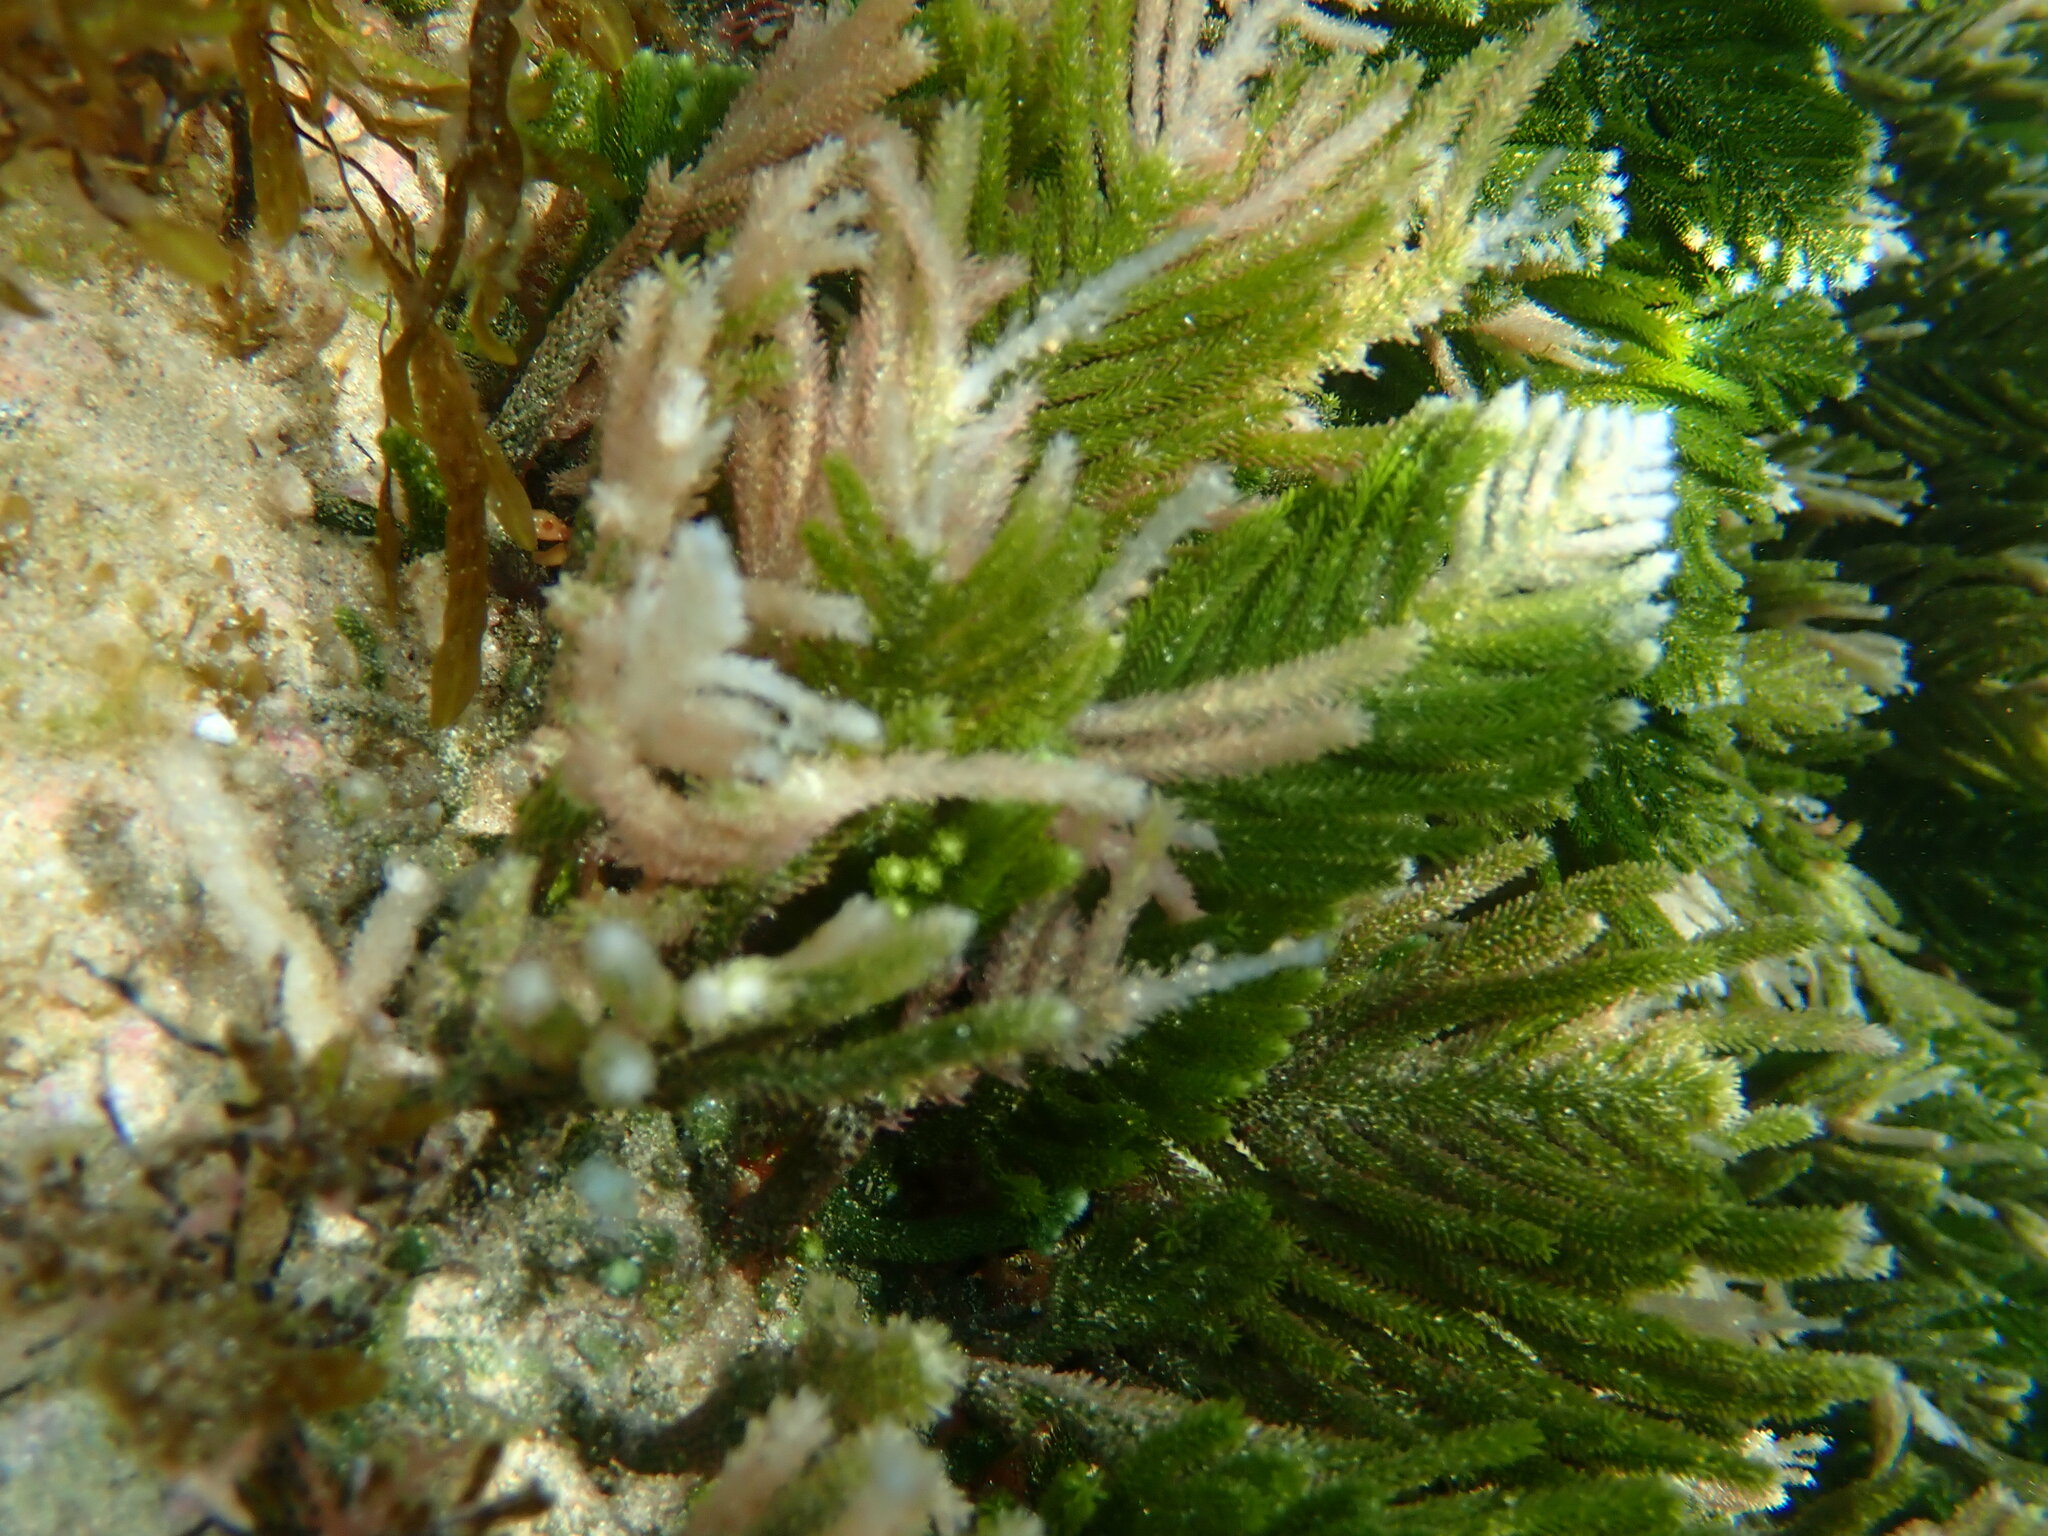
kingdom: Plantae
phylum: Chlorophyta
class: Ulvophyceae
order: Bryopsidales
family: Caulerpaceae
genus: Caulerpa
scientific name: Caulerpa
